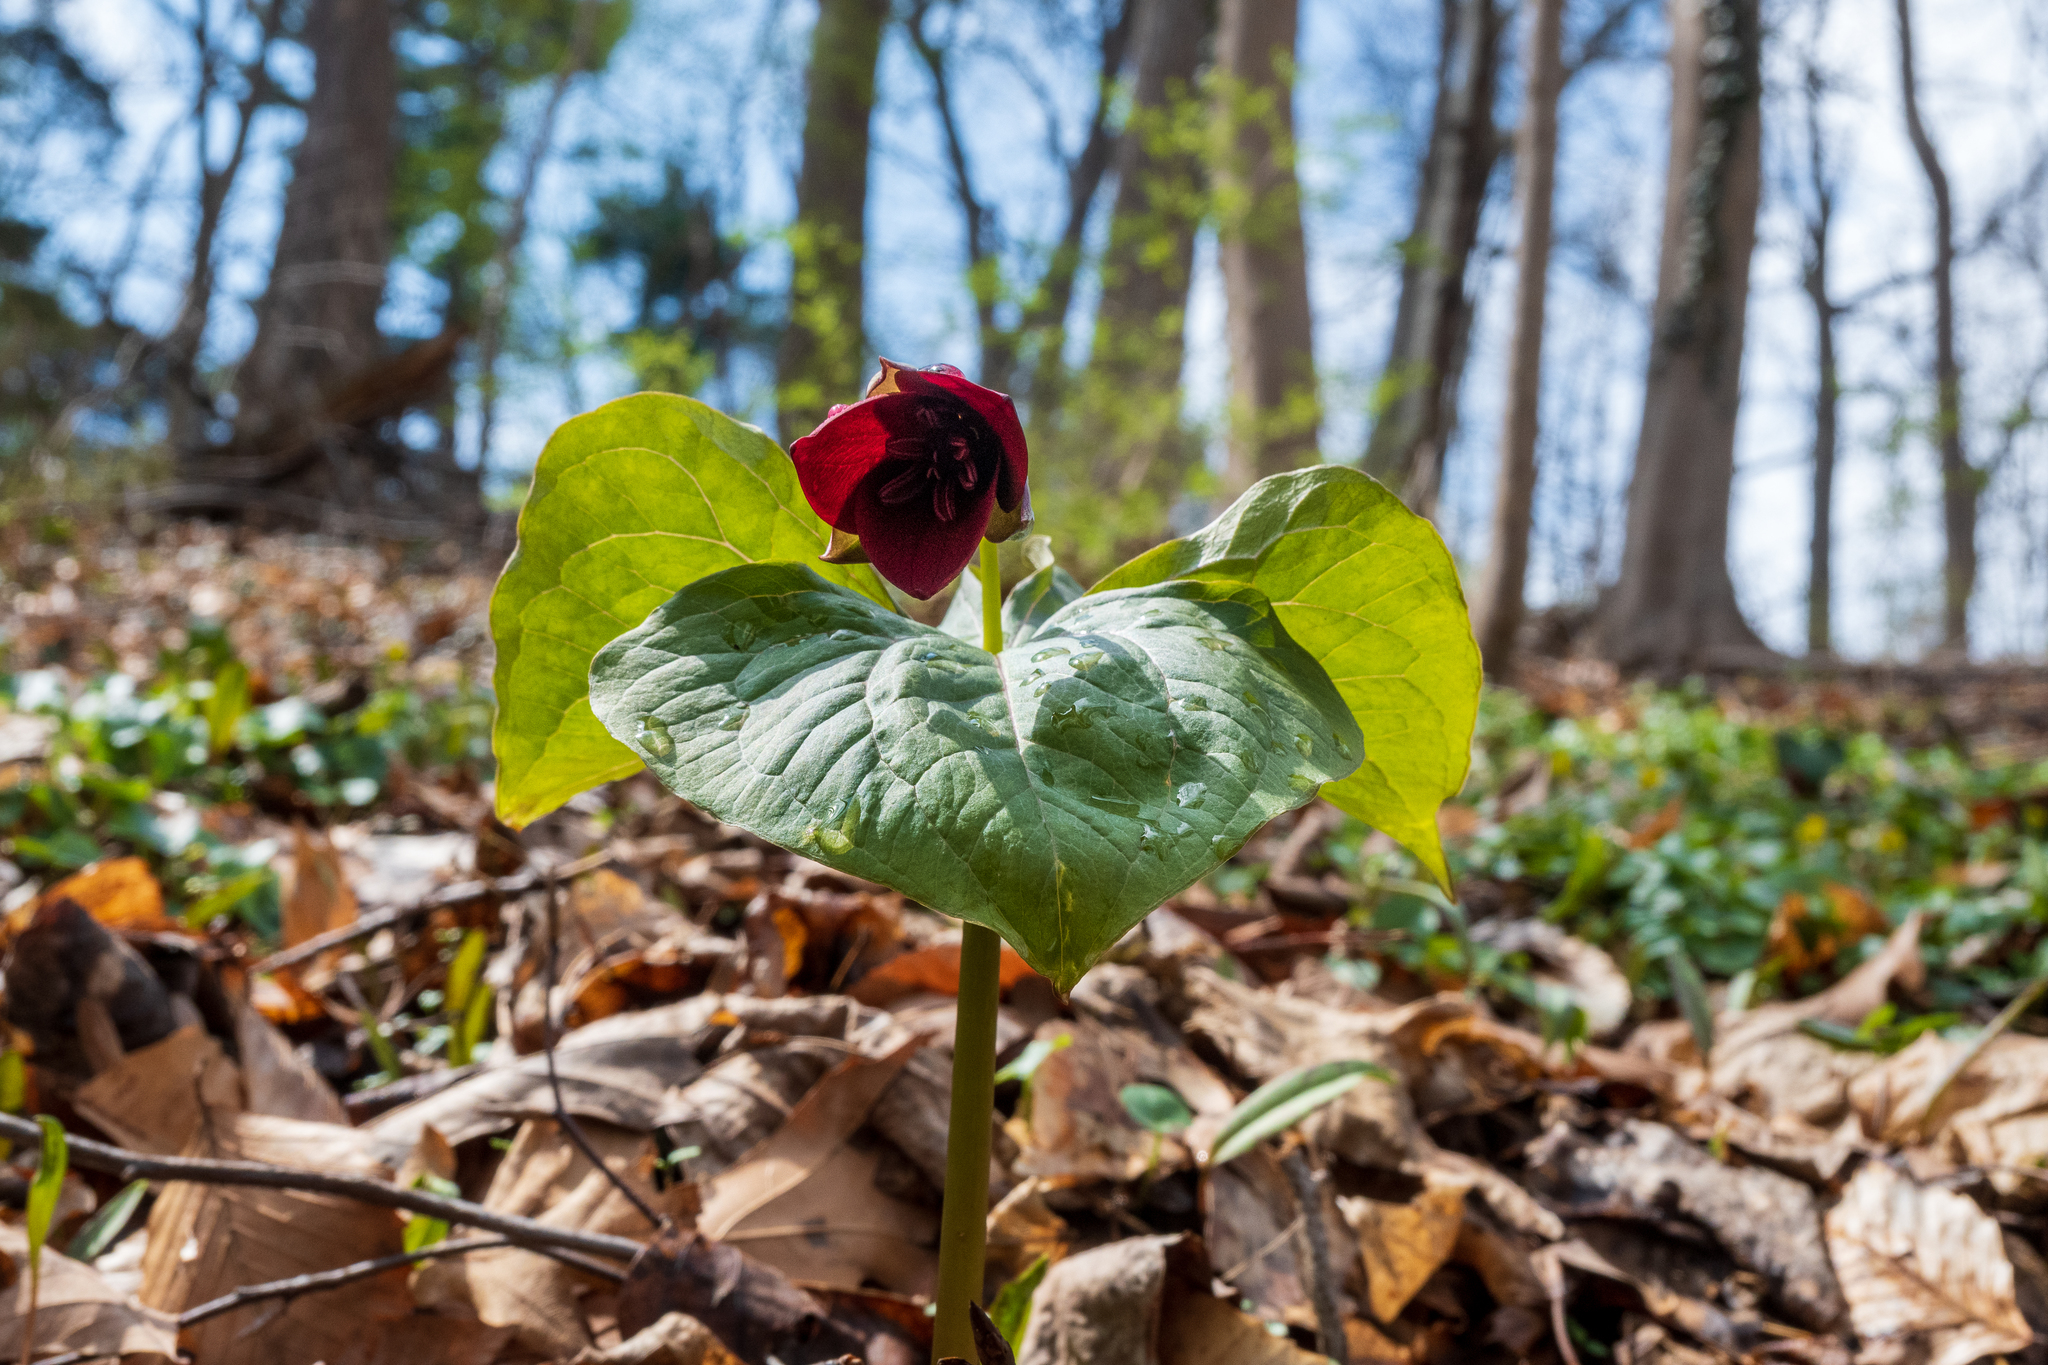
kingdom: Plantae
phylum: Tracheophyta
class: Liliopsida
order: Liliales
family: Melanthiaceae
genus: Trillium
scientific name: Trillium erectum
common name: Purple trillium
